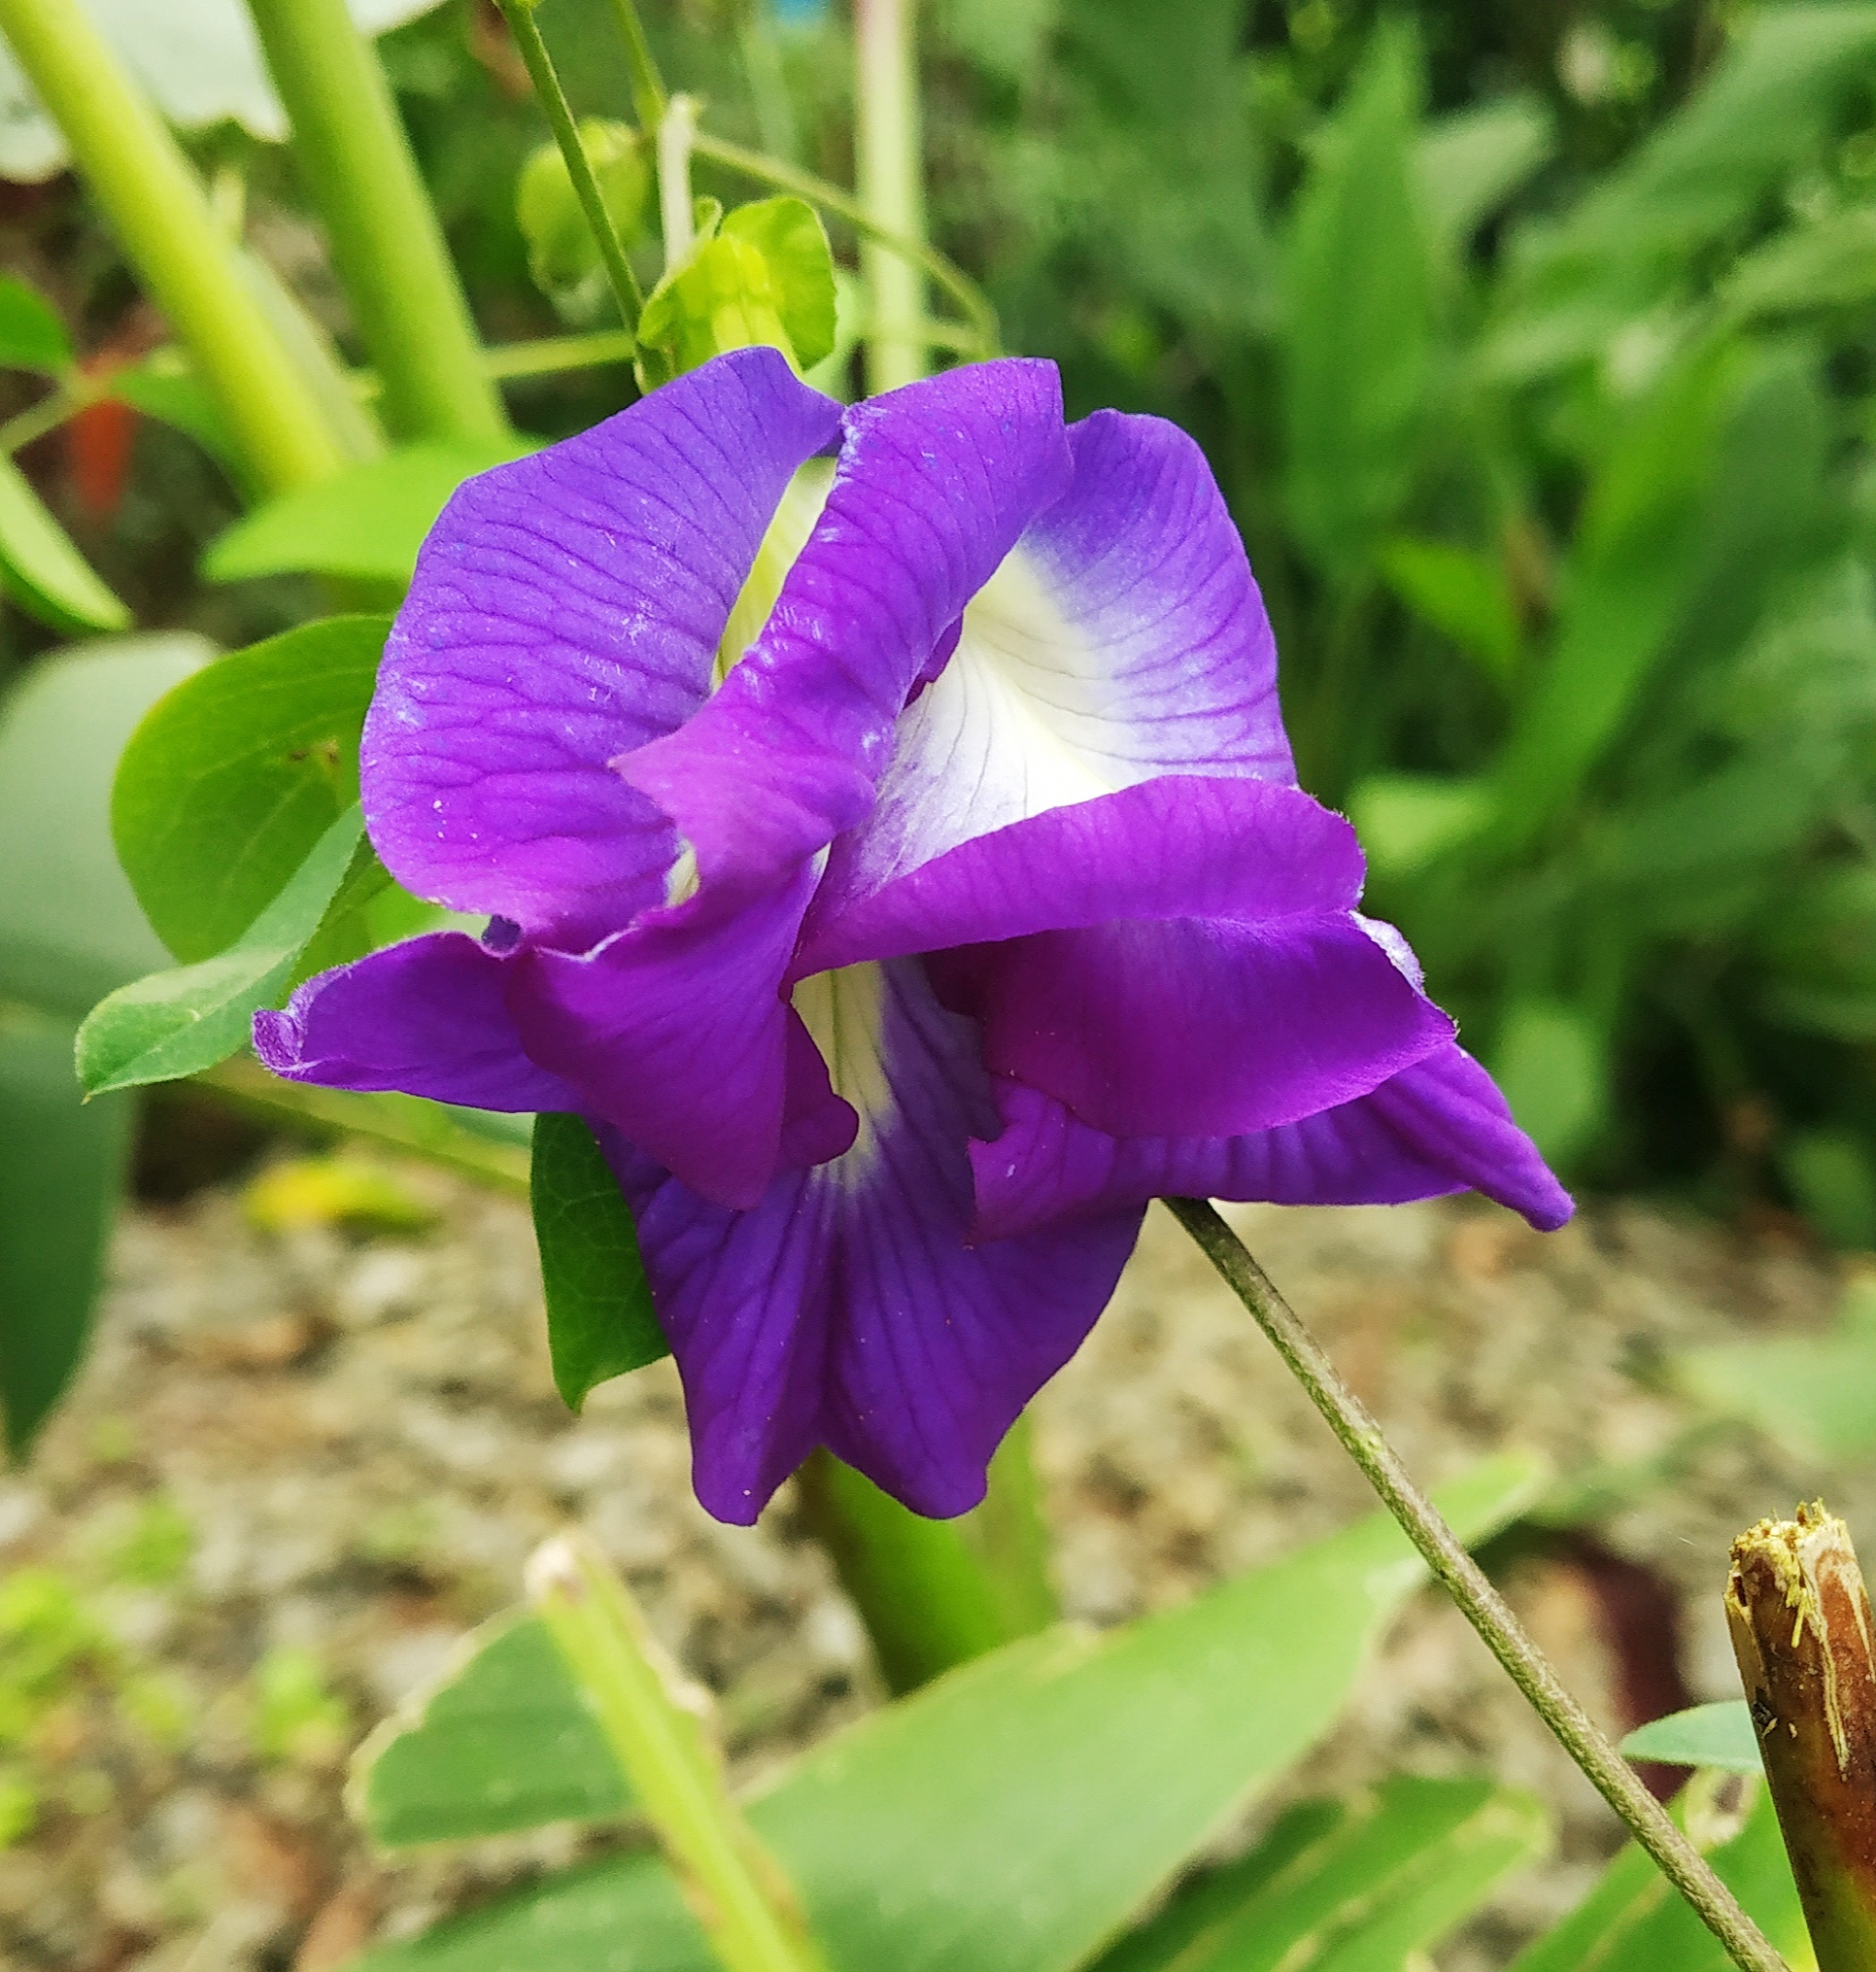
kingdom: Plantae
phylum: Tracheophyta
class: Magnoliopsida
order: Fabales
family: Fabaceae
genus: Clitoria
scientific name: Clitoria ternatea
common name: Asian pigeonwings
